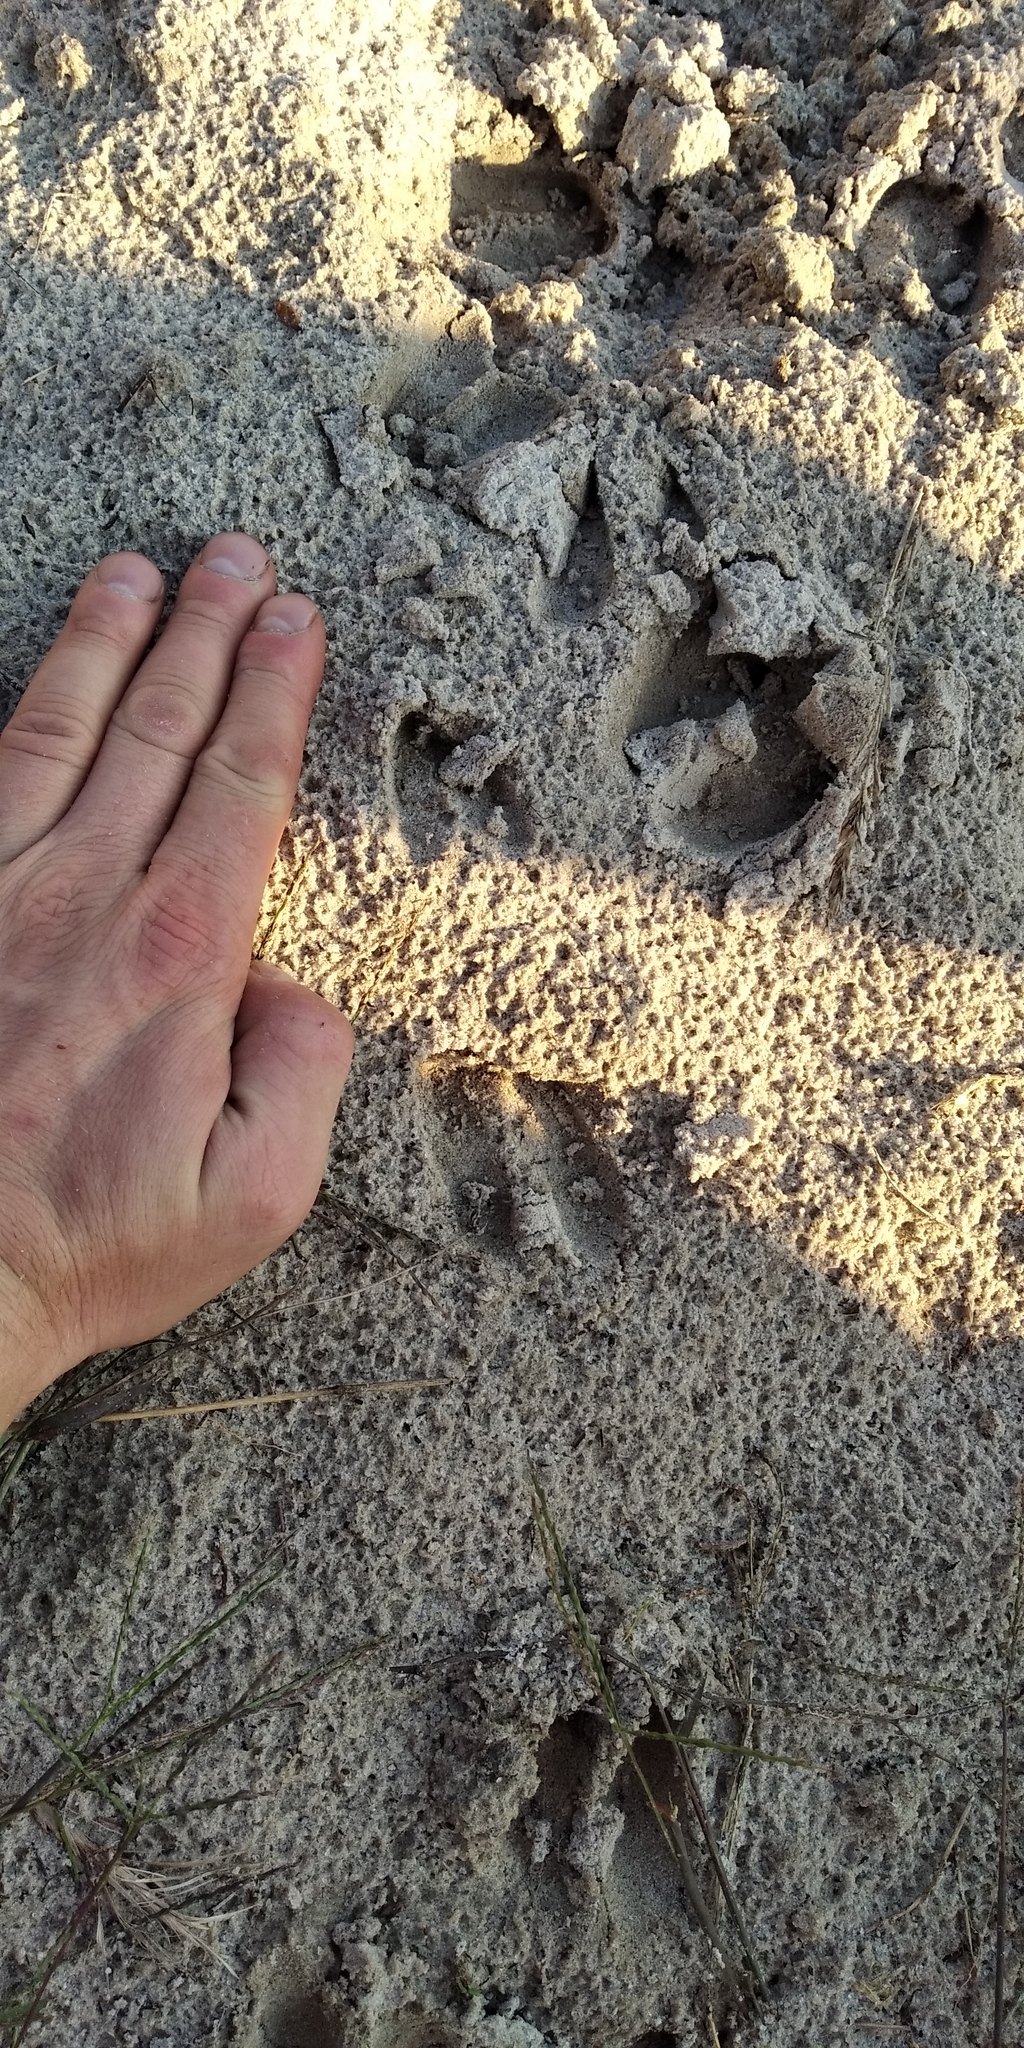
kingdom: Animalia
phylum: Chordata
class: Mammalia
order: Artiodactyla
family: Cervidae
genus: Capreolus
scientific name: Capreolus capreolus
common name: Western roe deer
